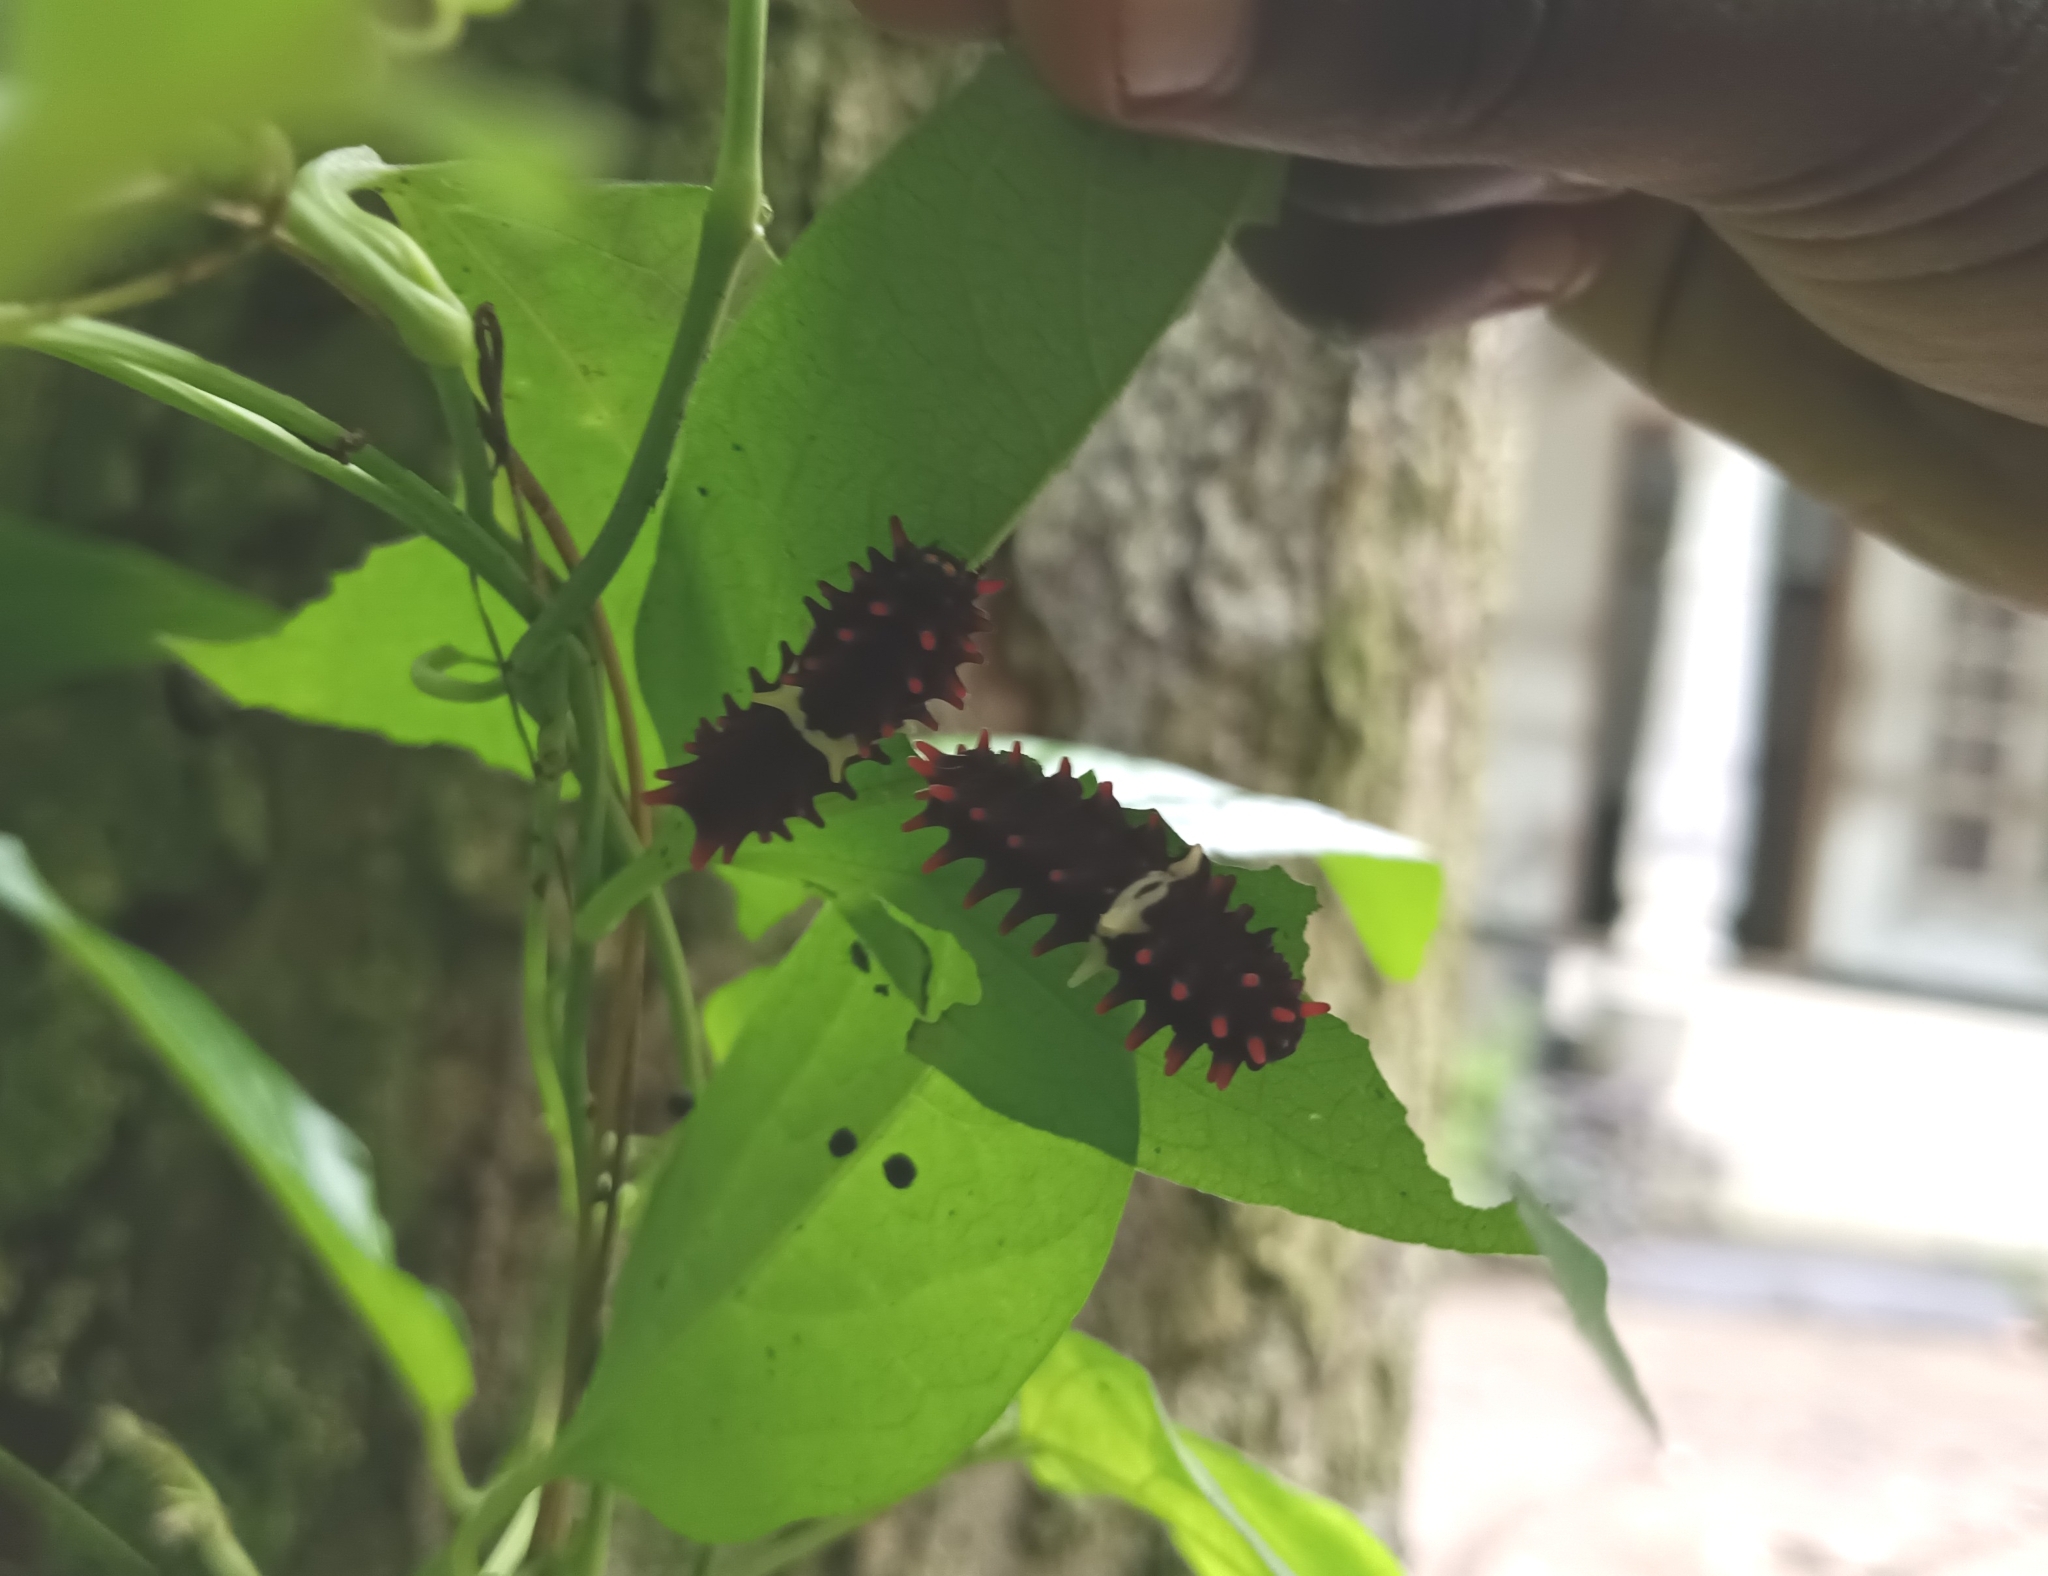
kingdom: Animalia
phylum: Arthropoda
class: Insecta
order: Lepidoptera
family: Papilionidae
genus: Pachliopta
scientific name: Pachliopta aristolochiae
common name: Common rose
